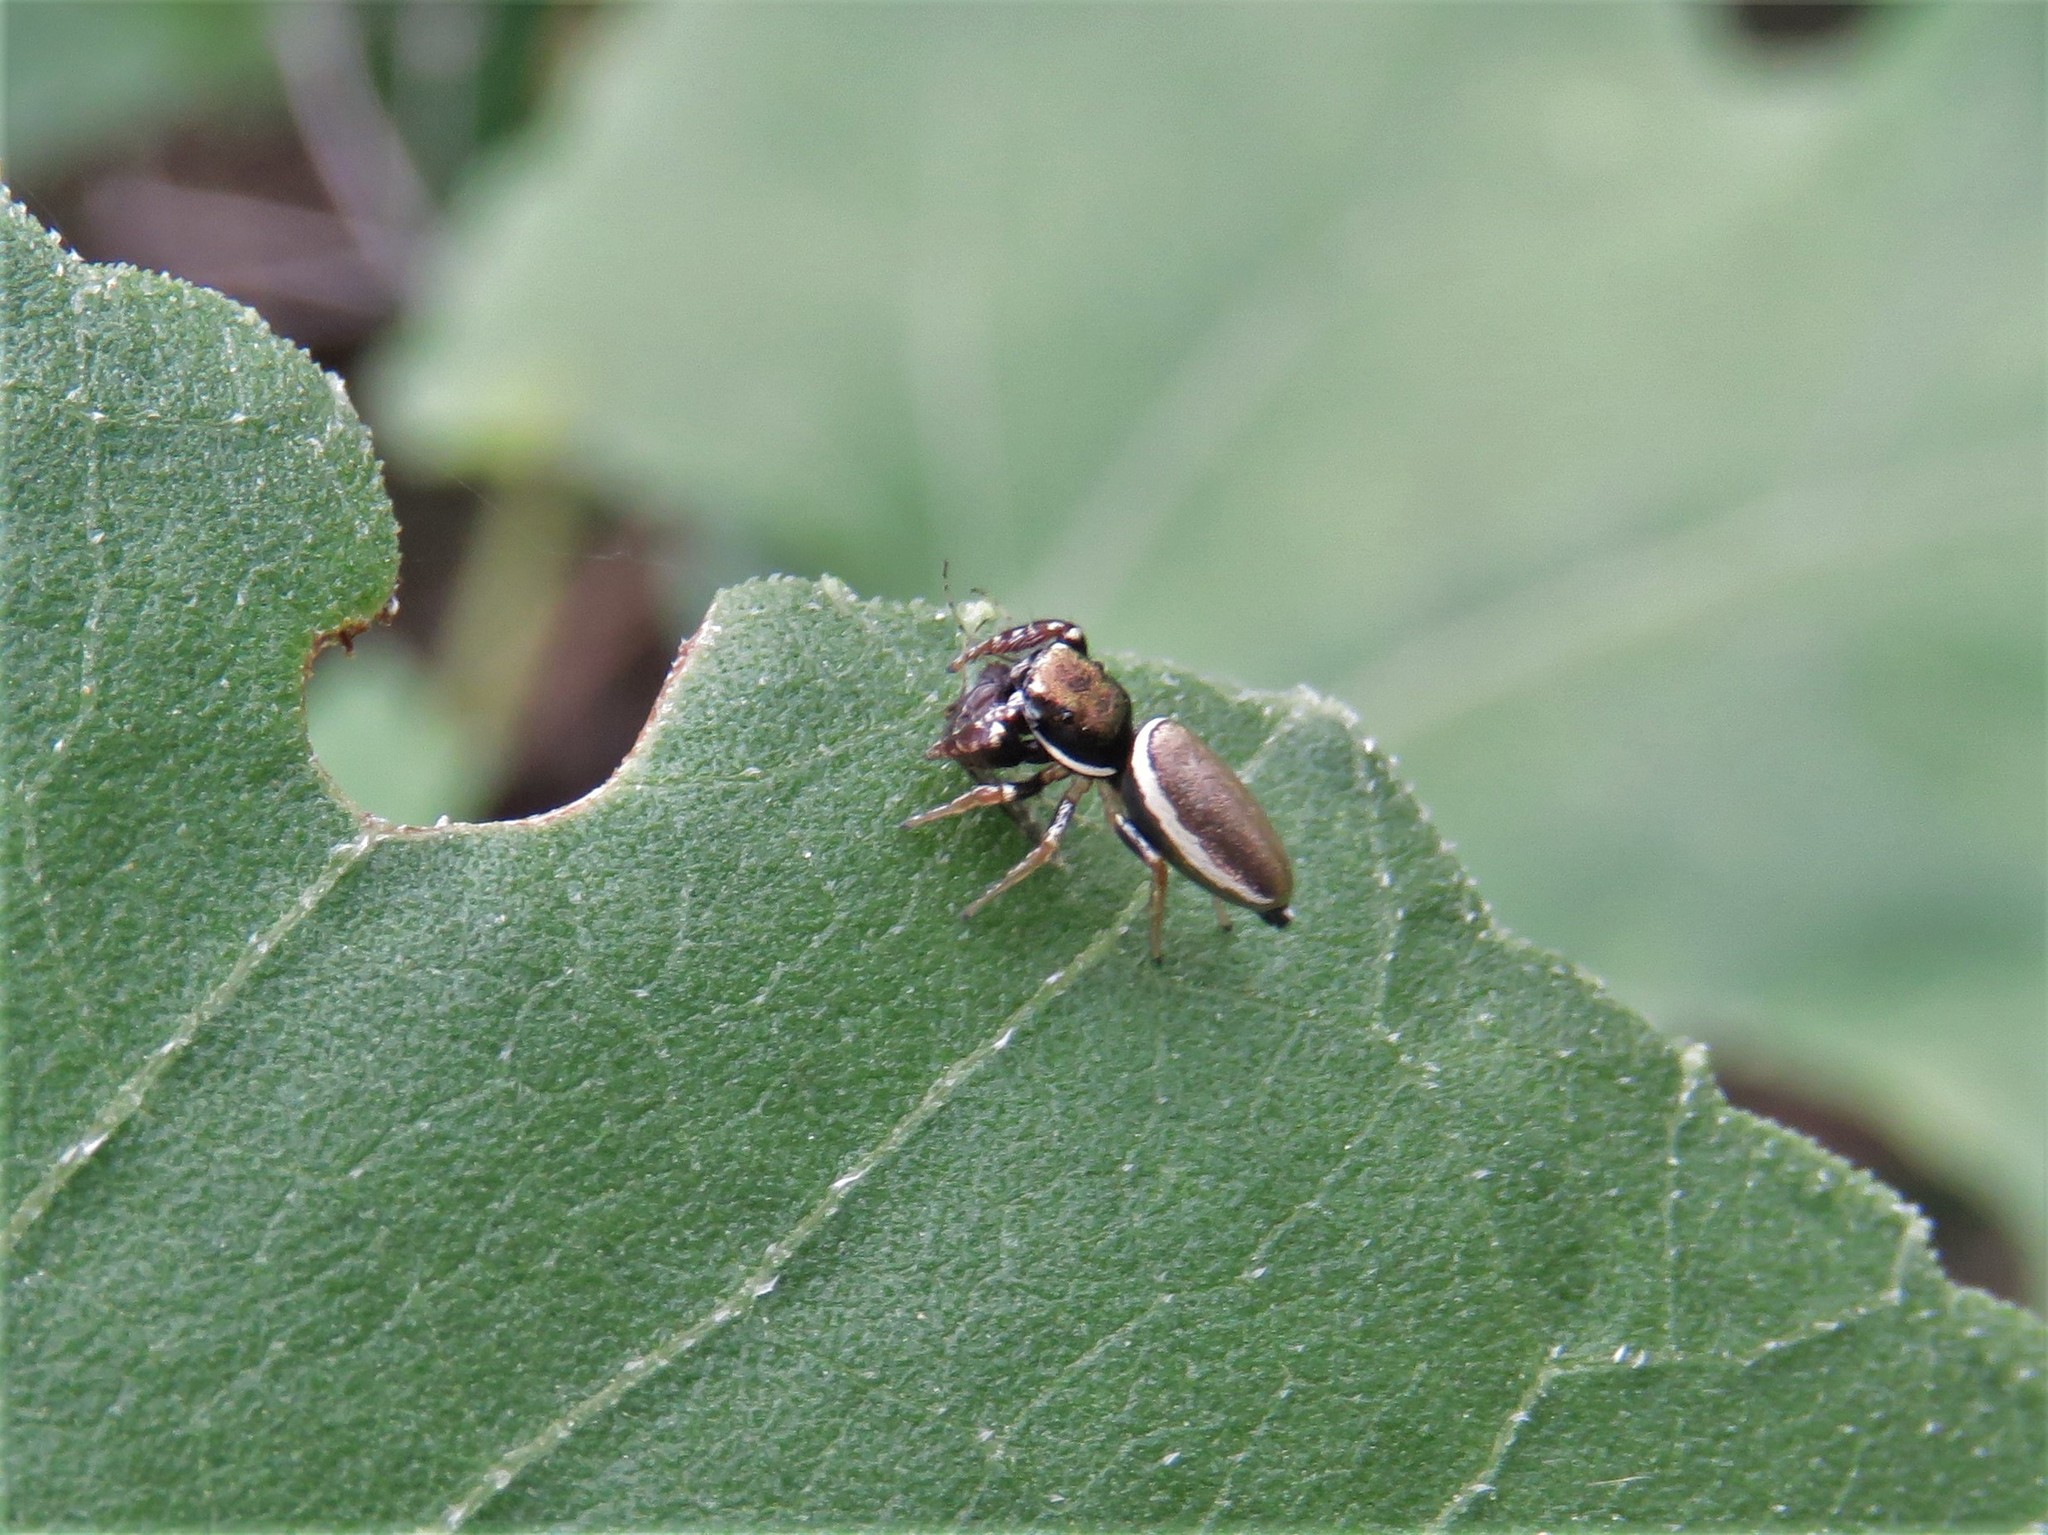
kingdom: Animalia
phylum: Arthropoda
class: Arachnida
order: Araneae
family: Salticidae
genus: Sassacus
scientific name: Sassacus vitis
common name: Jumping spiders
